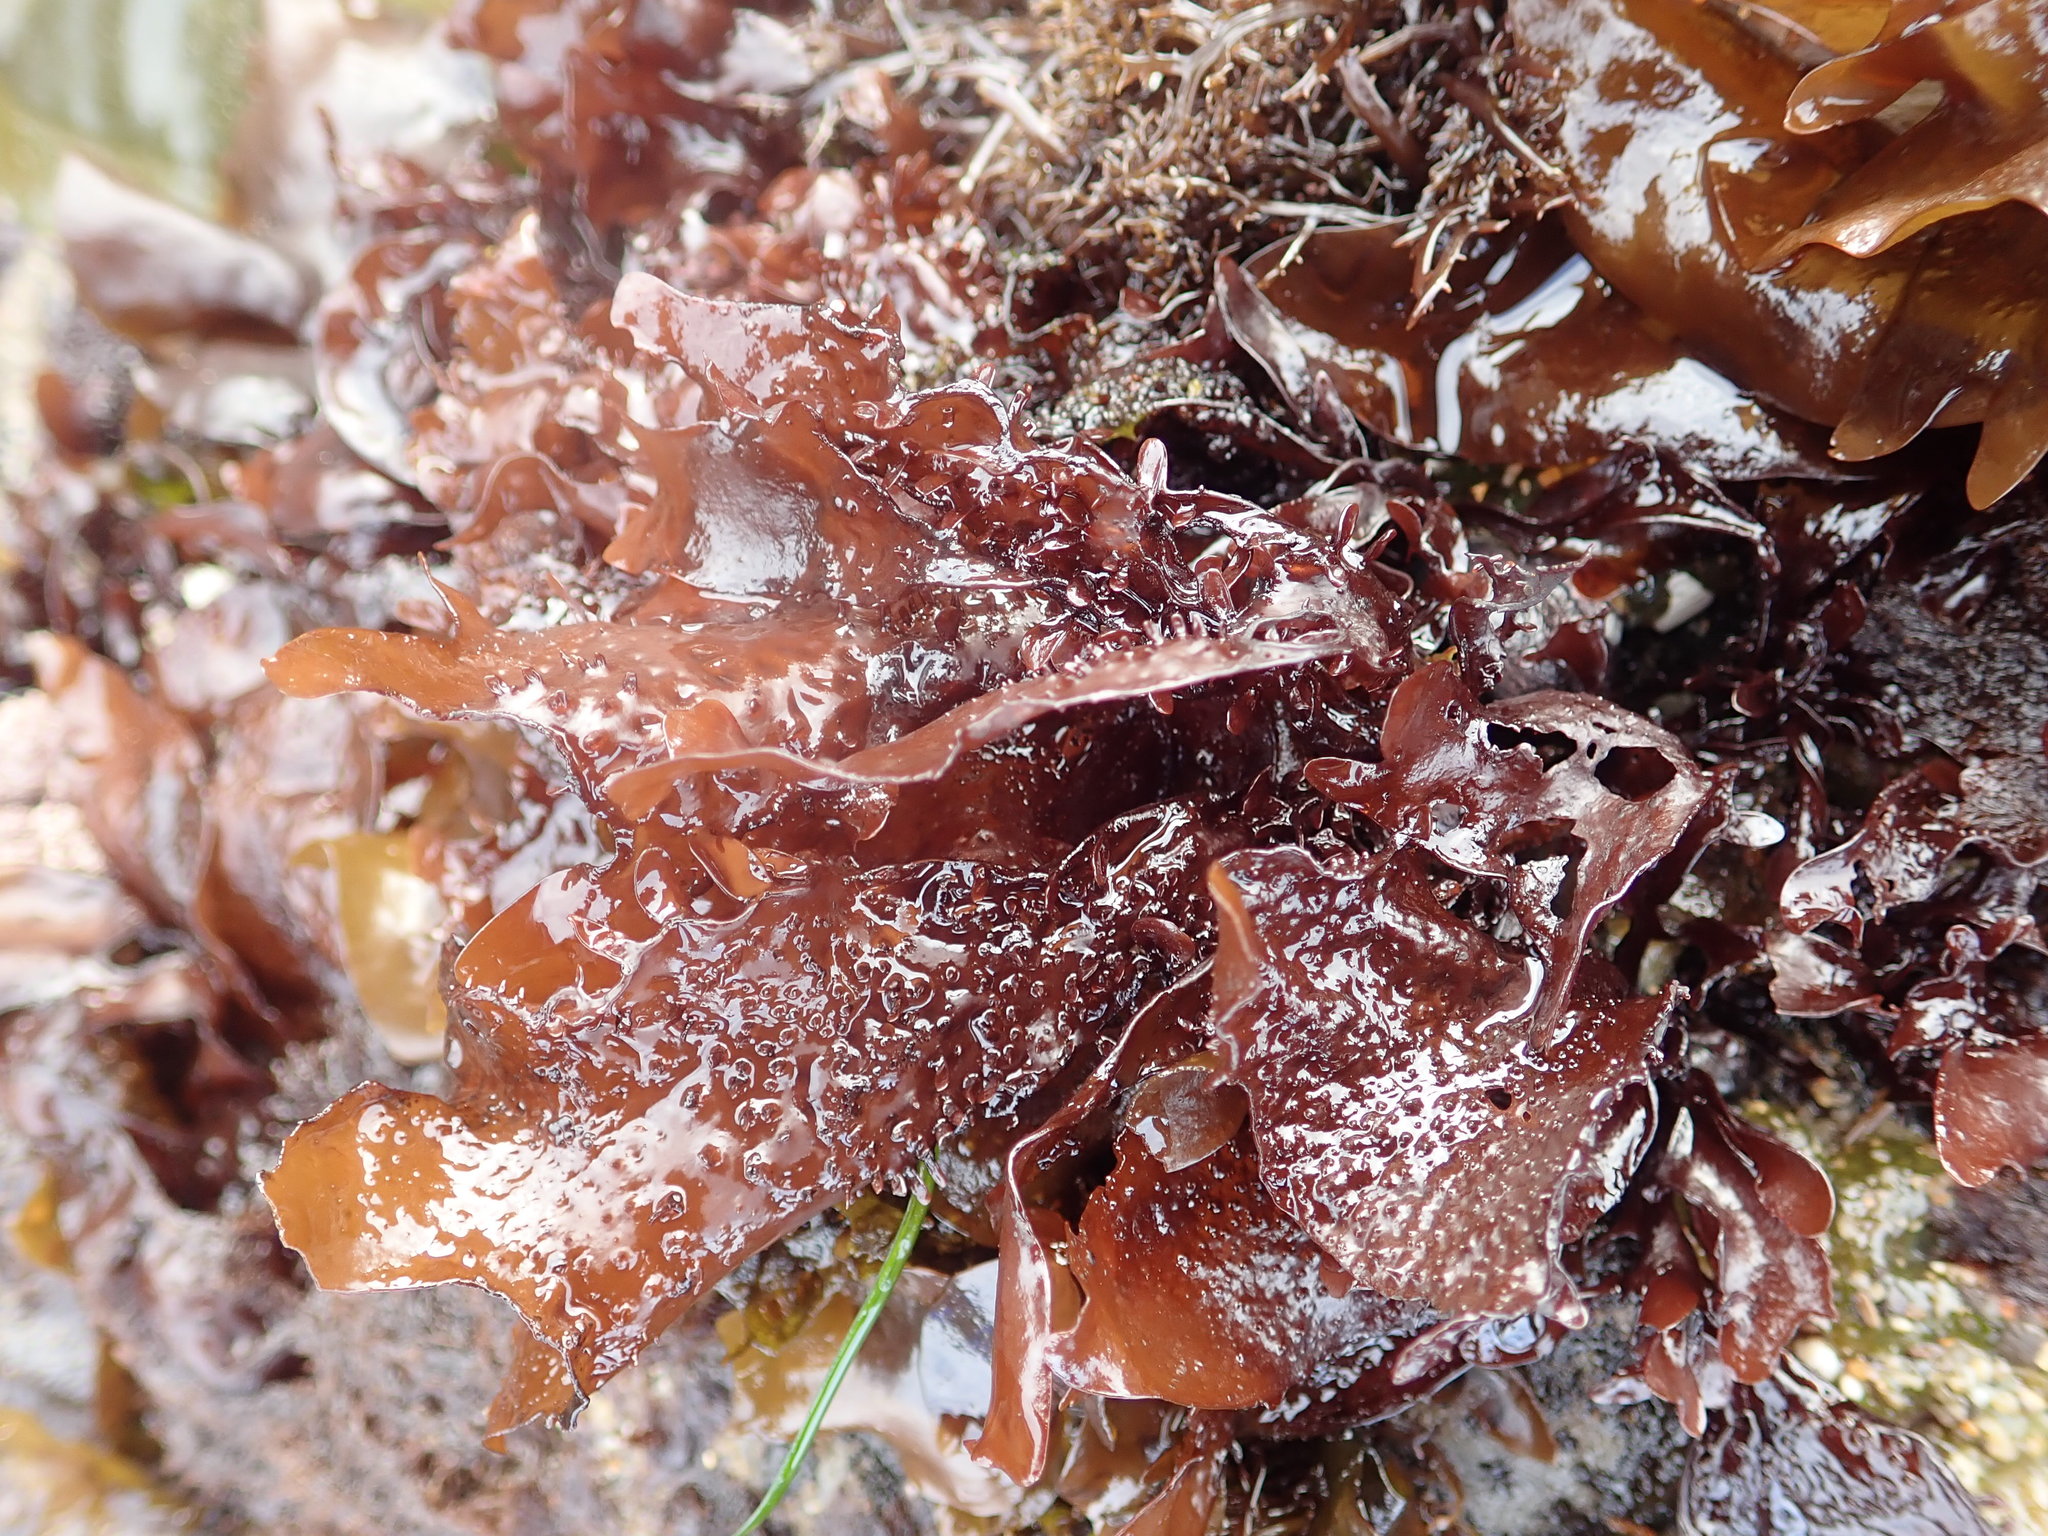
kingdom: Plantae
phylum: Rhodophyta
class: Florideophyceae
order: Gigartinales
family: Phyllophoraceae
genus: Mastocarpus
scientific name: Mastocarpus papillatus
